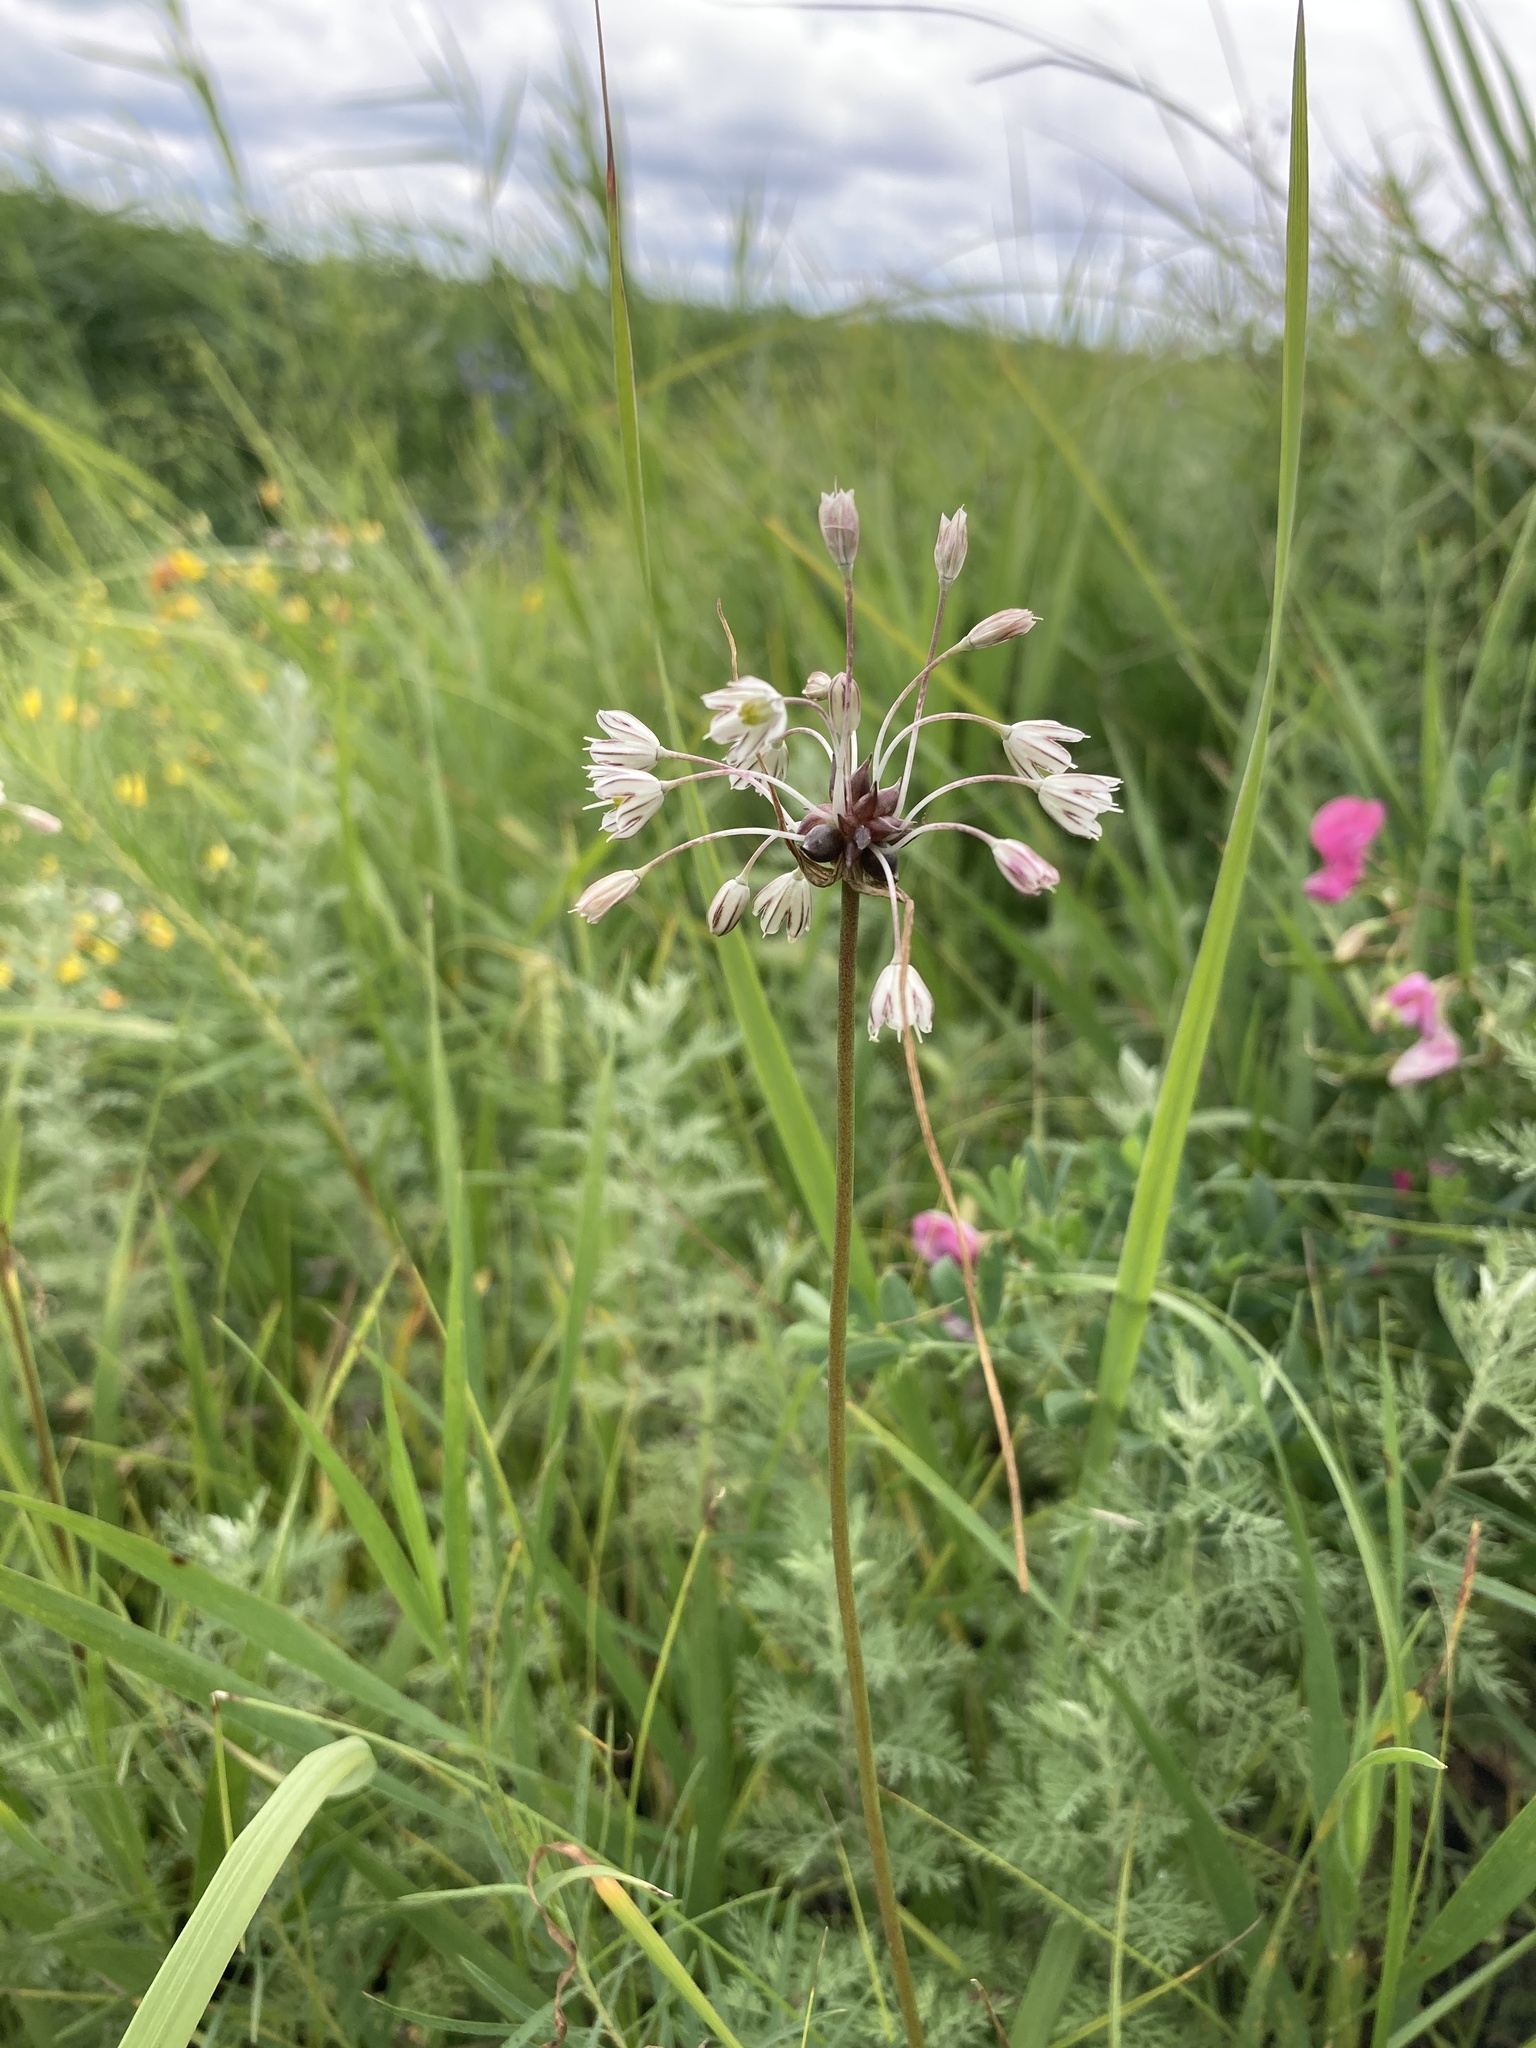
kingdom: Plantae
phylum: Tracheophyta
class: Liliopsida
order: Asparagales
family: Amaryllidaceae
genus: Allium
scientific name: Allium oleraceum
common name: Field garlic
